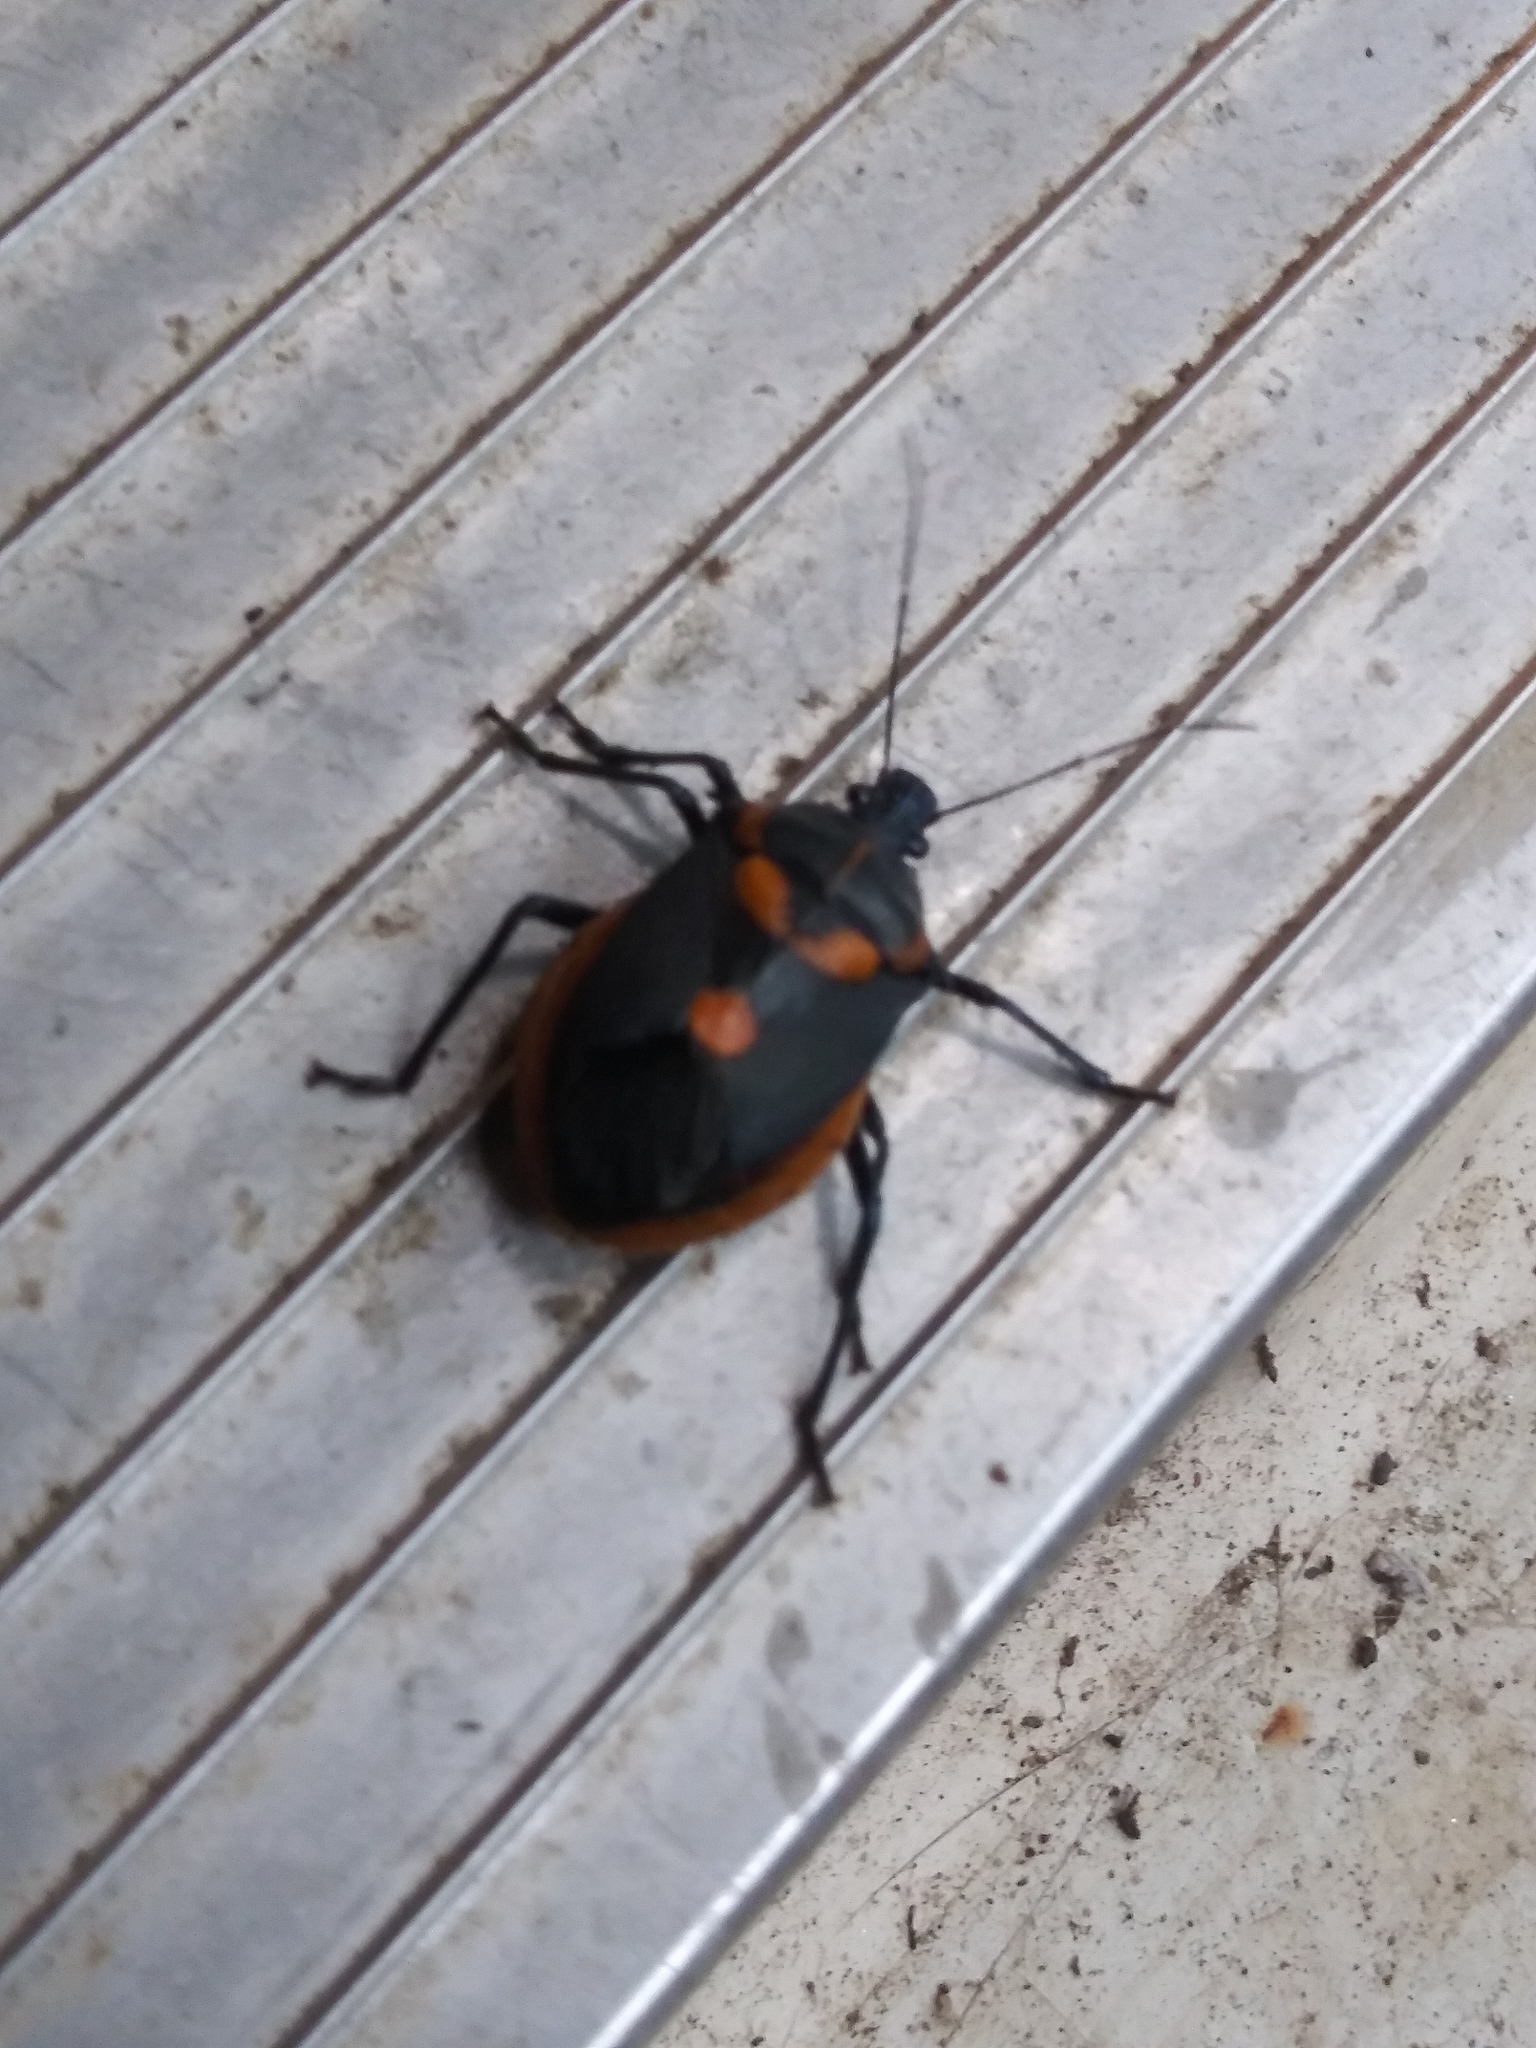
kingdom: Animalia
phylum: Arthropoda
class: Insecta
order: Hemiptera
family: Pentatomidae
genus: Euthyrhynchus
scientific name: Euthyrhynchus floridanus
